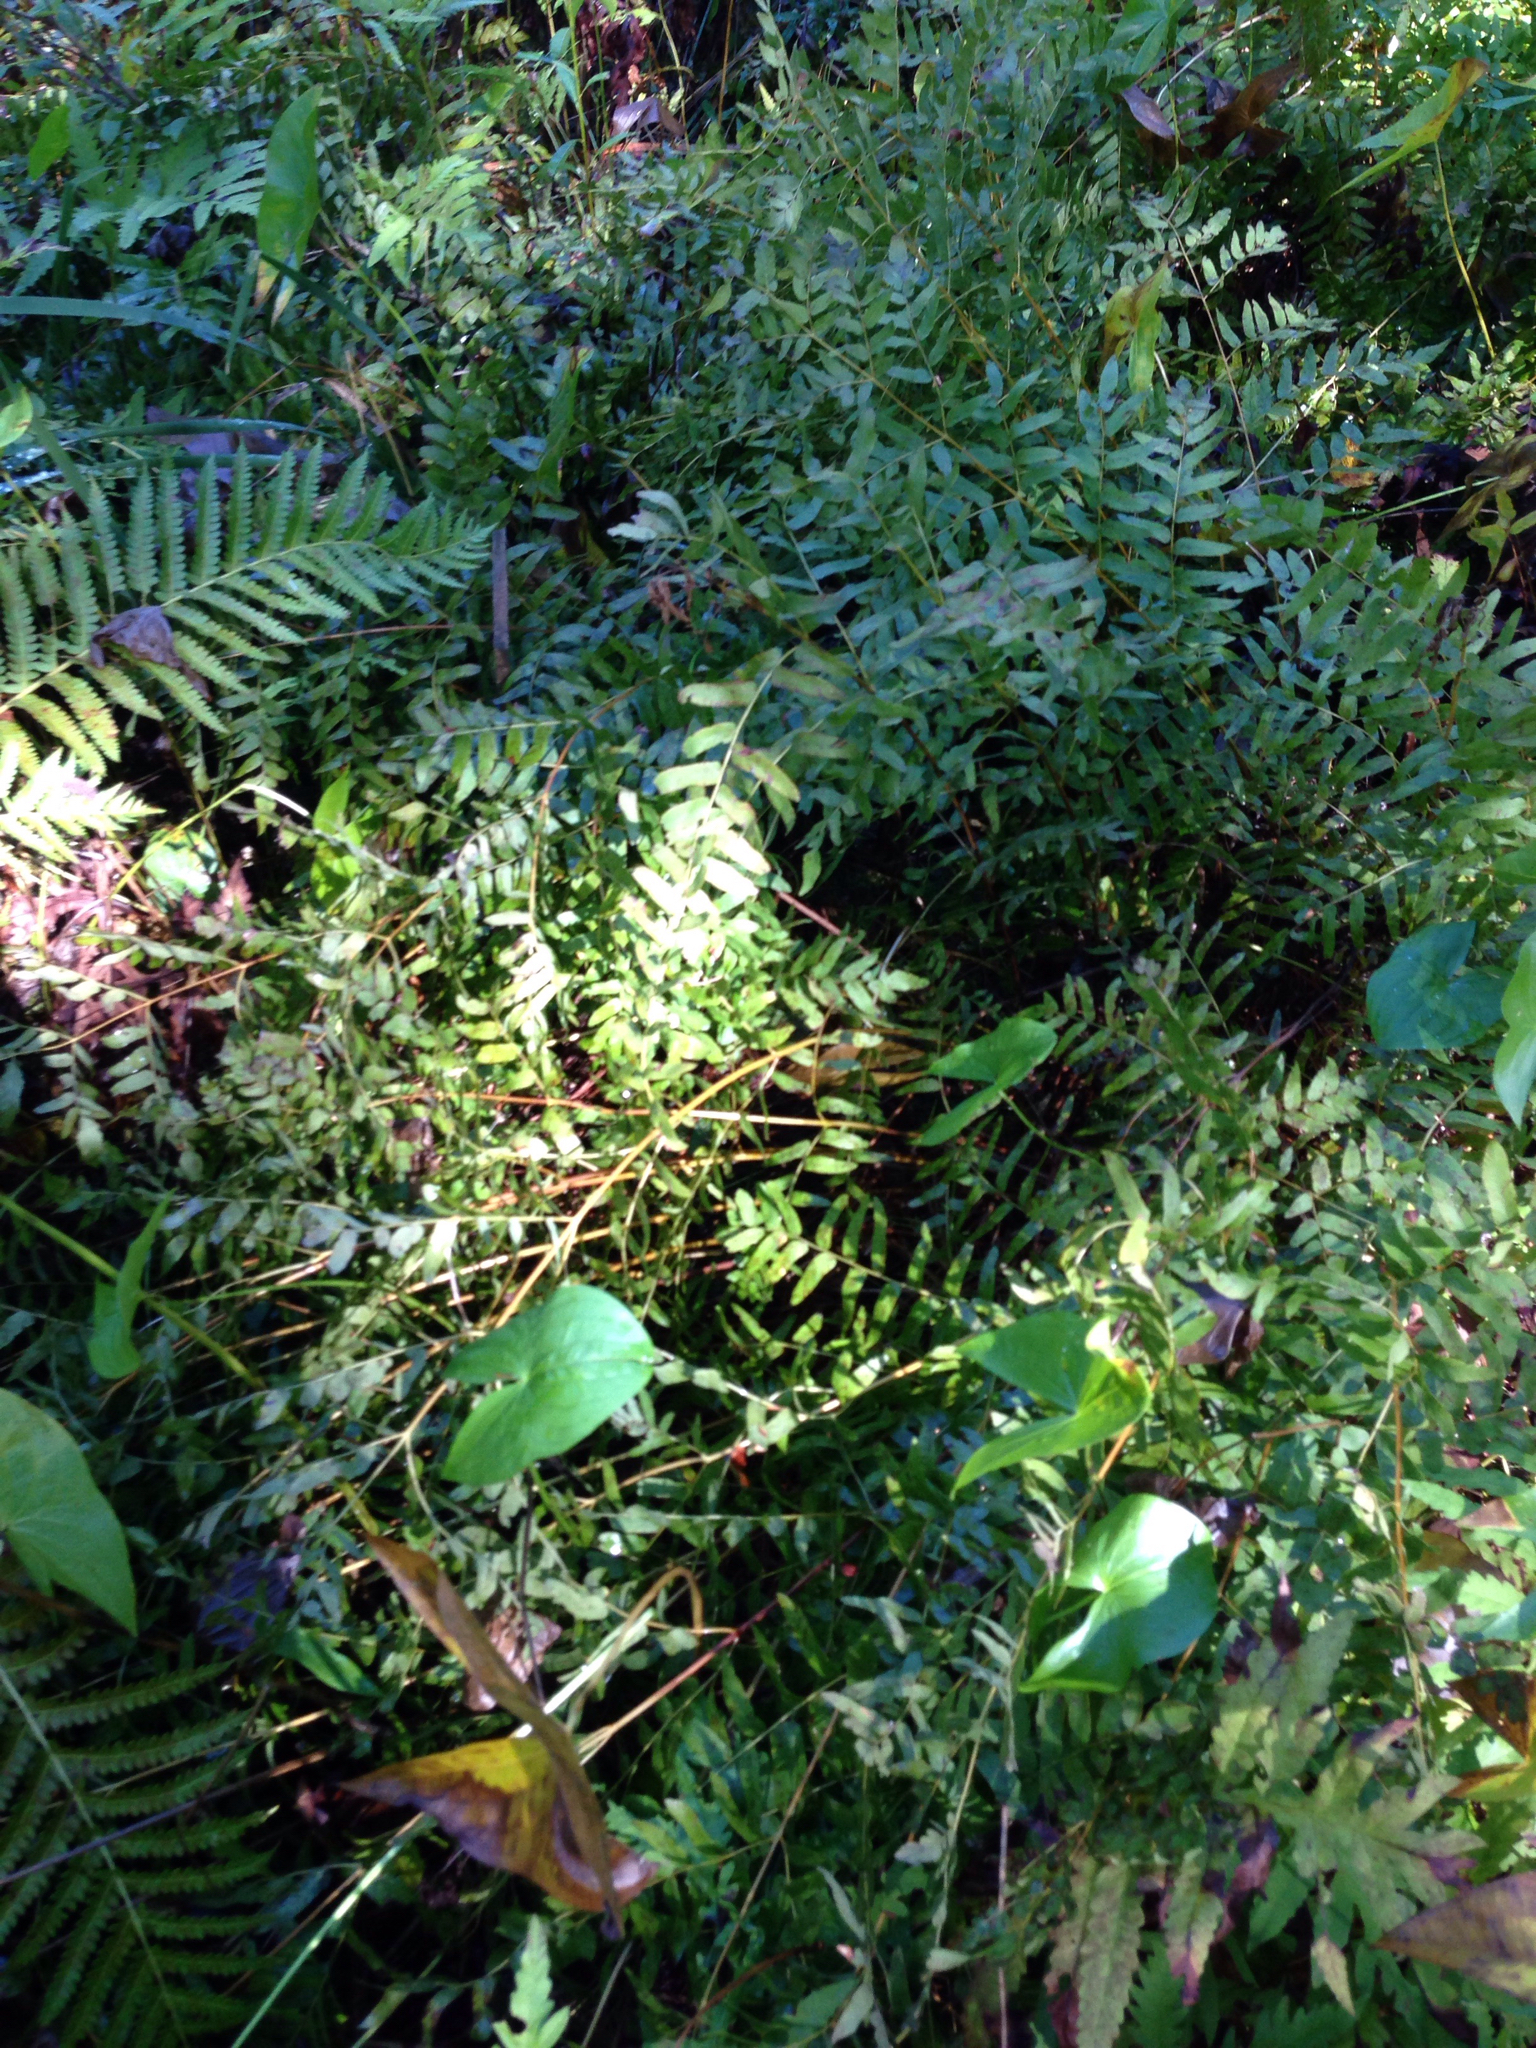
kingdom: Plantae
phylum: Tracheophyta
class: Polypodiopsida
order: Osmundales
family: Osmundaceae
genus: Osmunda
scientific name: Osmunda spectabilis
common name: American royal fern
